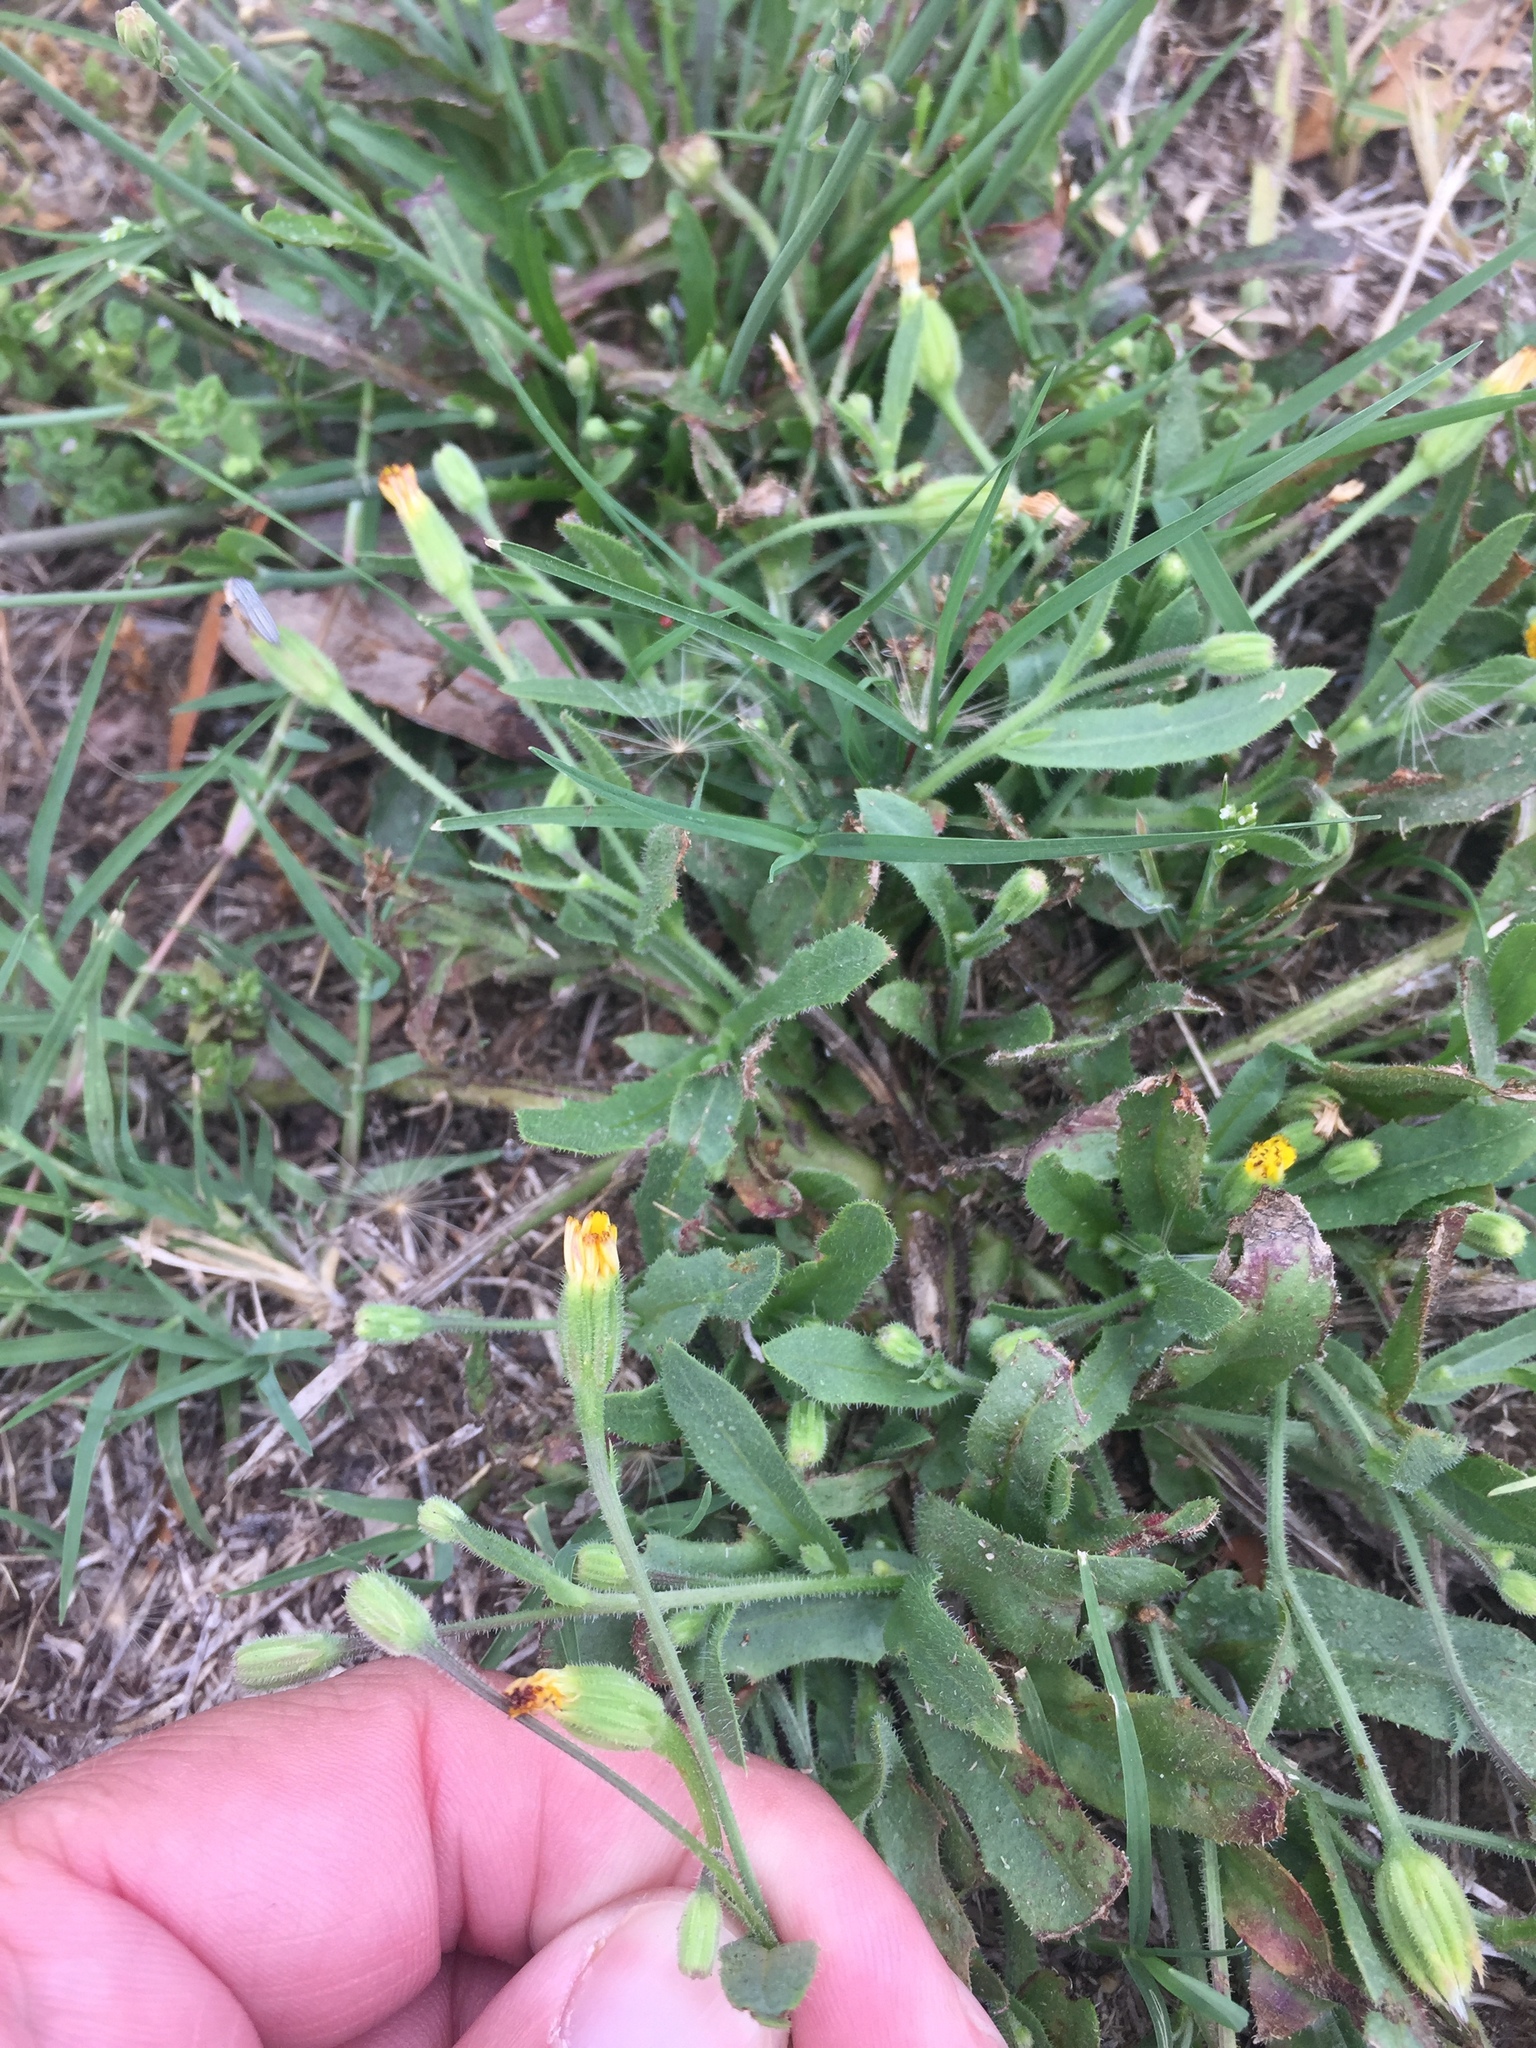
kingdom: Plantae
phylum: Tracheophyta
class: Magnoliopsida
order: Asterales
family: Asteraceae
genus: Hedypnois
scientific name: Hedypnois rhagadioloides
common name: Cretan weed
